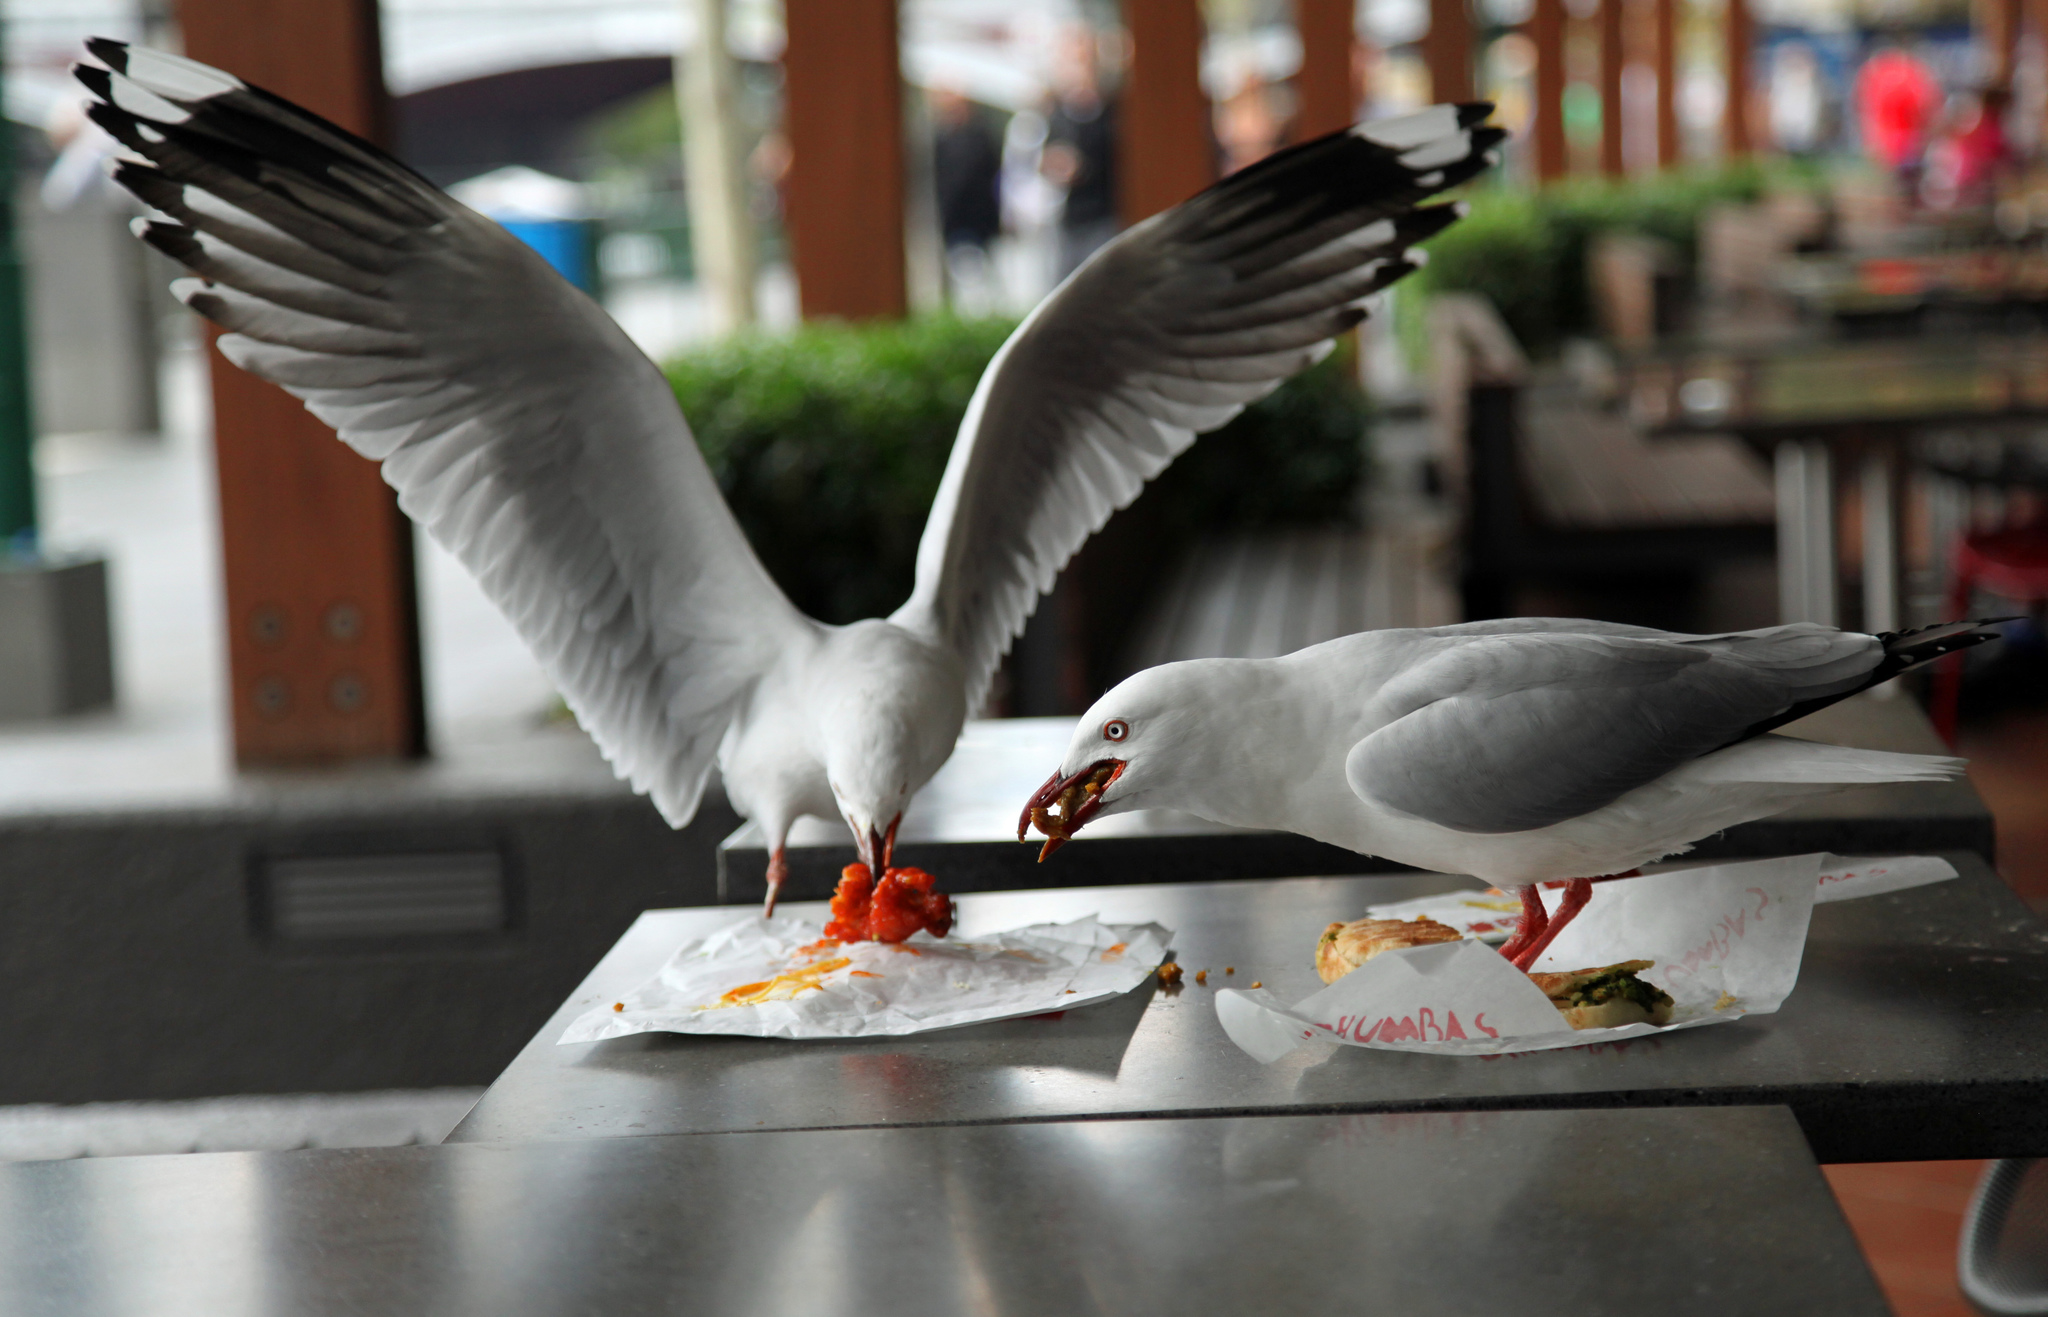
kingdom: Animalia
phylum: Chordata
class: Aves
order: Charadriiformes
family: Laridae
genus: Chroicocephalus
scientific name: Chroicocephalus novaehollandiae
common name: Silver gull
